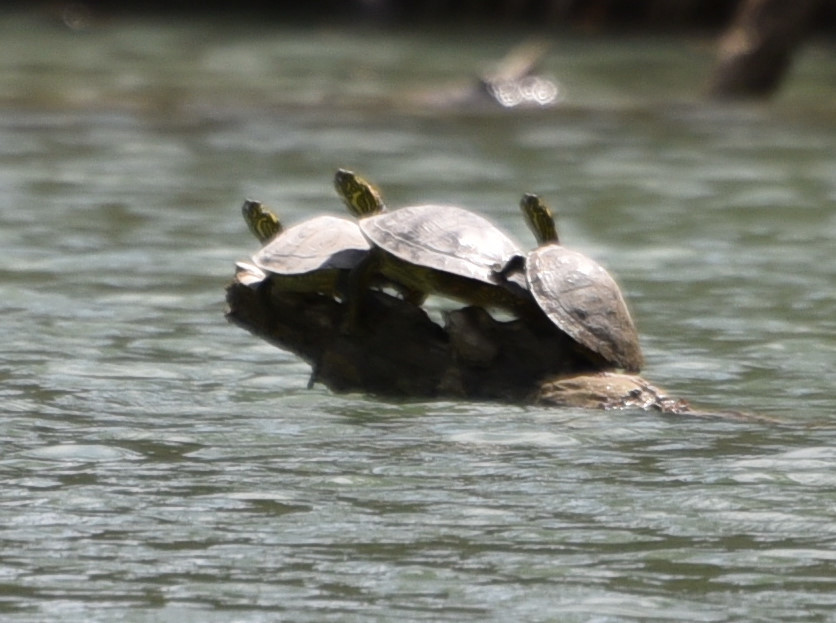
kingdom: Animalia
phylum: Chordata
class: Testudines
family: Emydidae
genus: Pseudemys
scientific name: Pseudemys texana
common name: Texas river cooter
